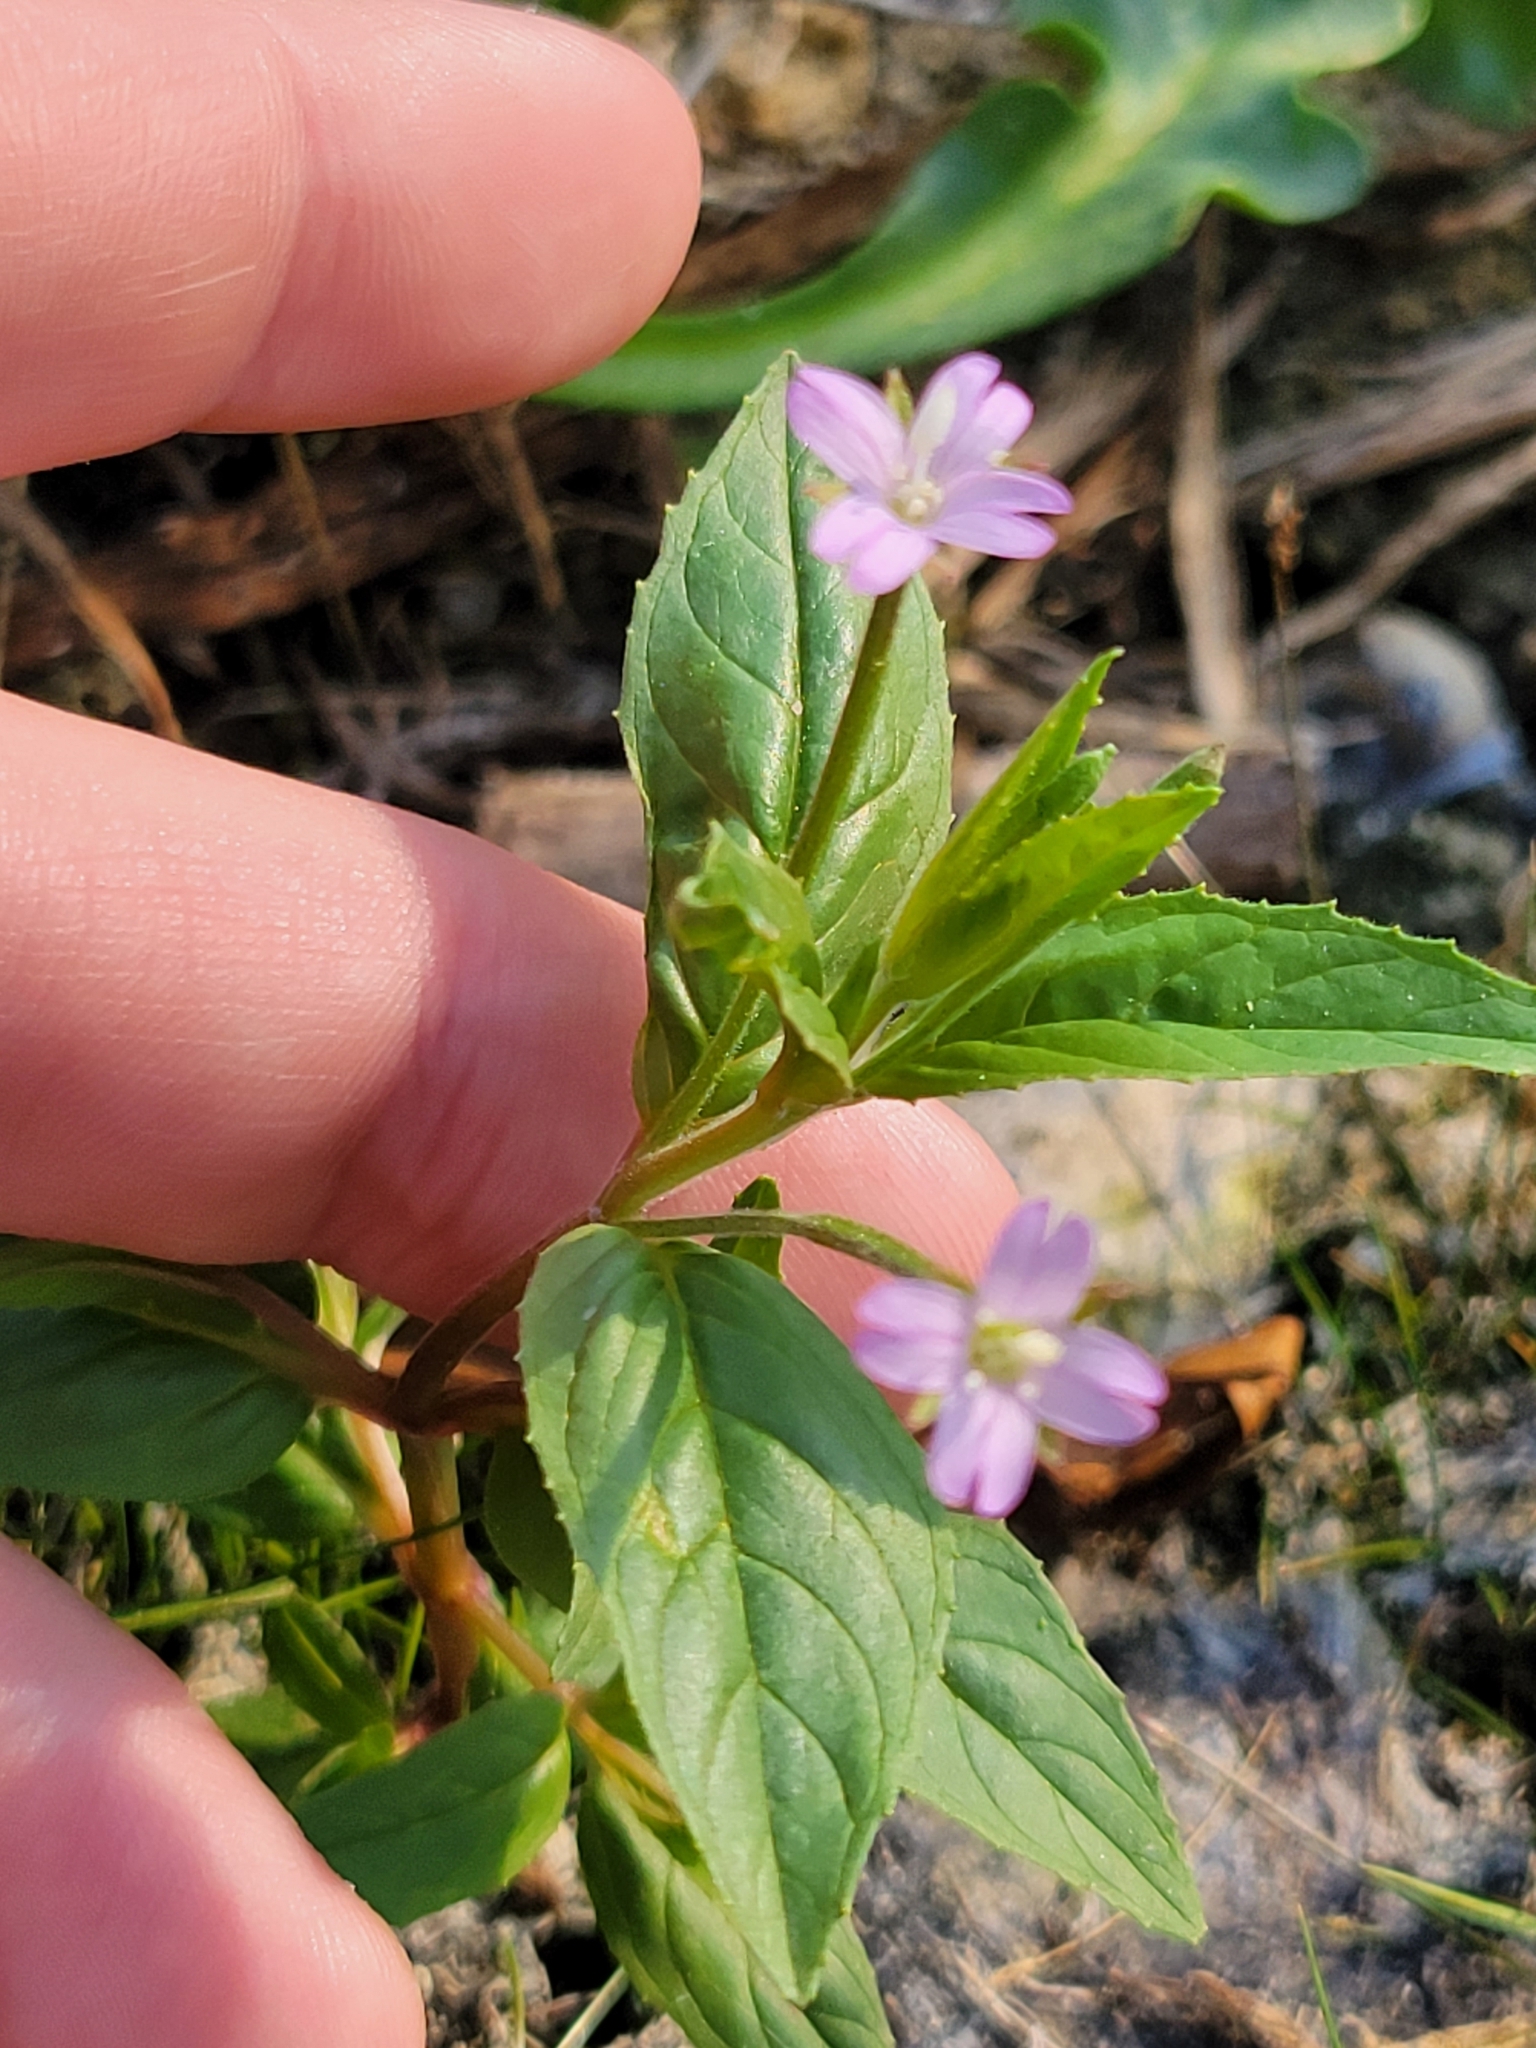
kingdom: Plantae
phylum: Tracheophyta
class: Magnoliopsida
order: Myrtales
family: Onagraceae
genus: Epilobium
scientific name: Epilobium ciliatum
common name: American willowherb
